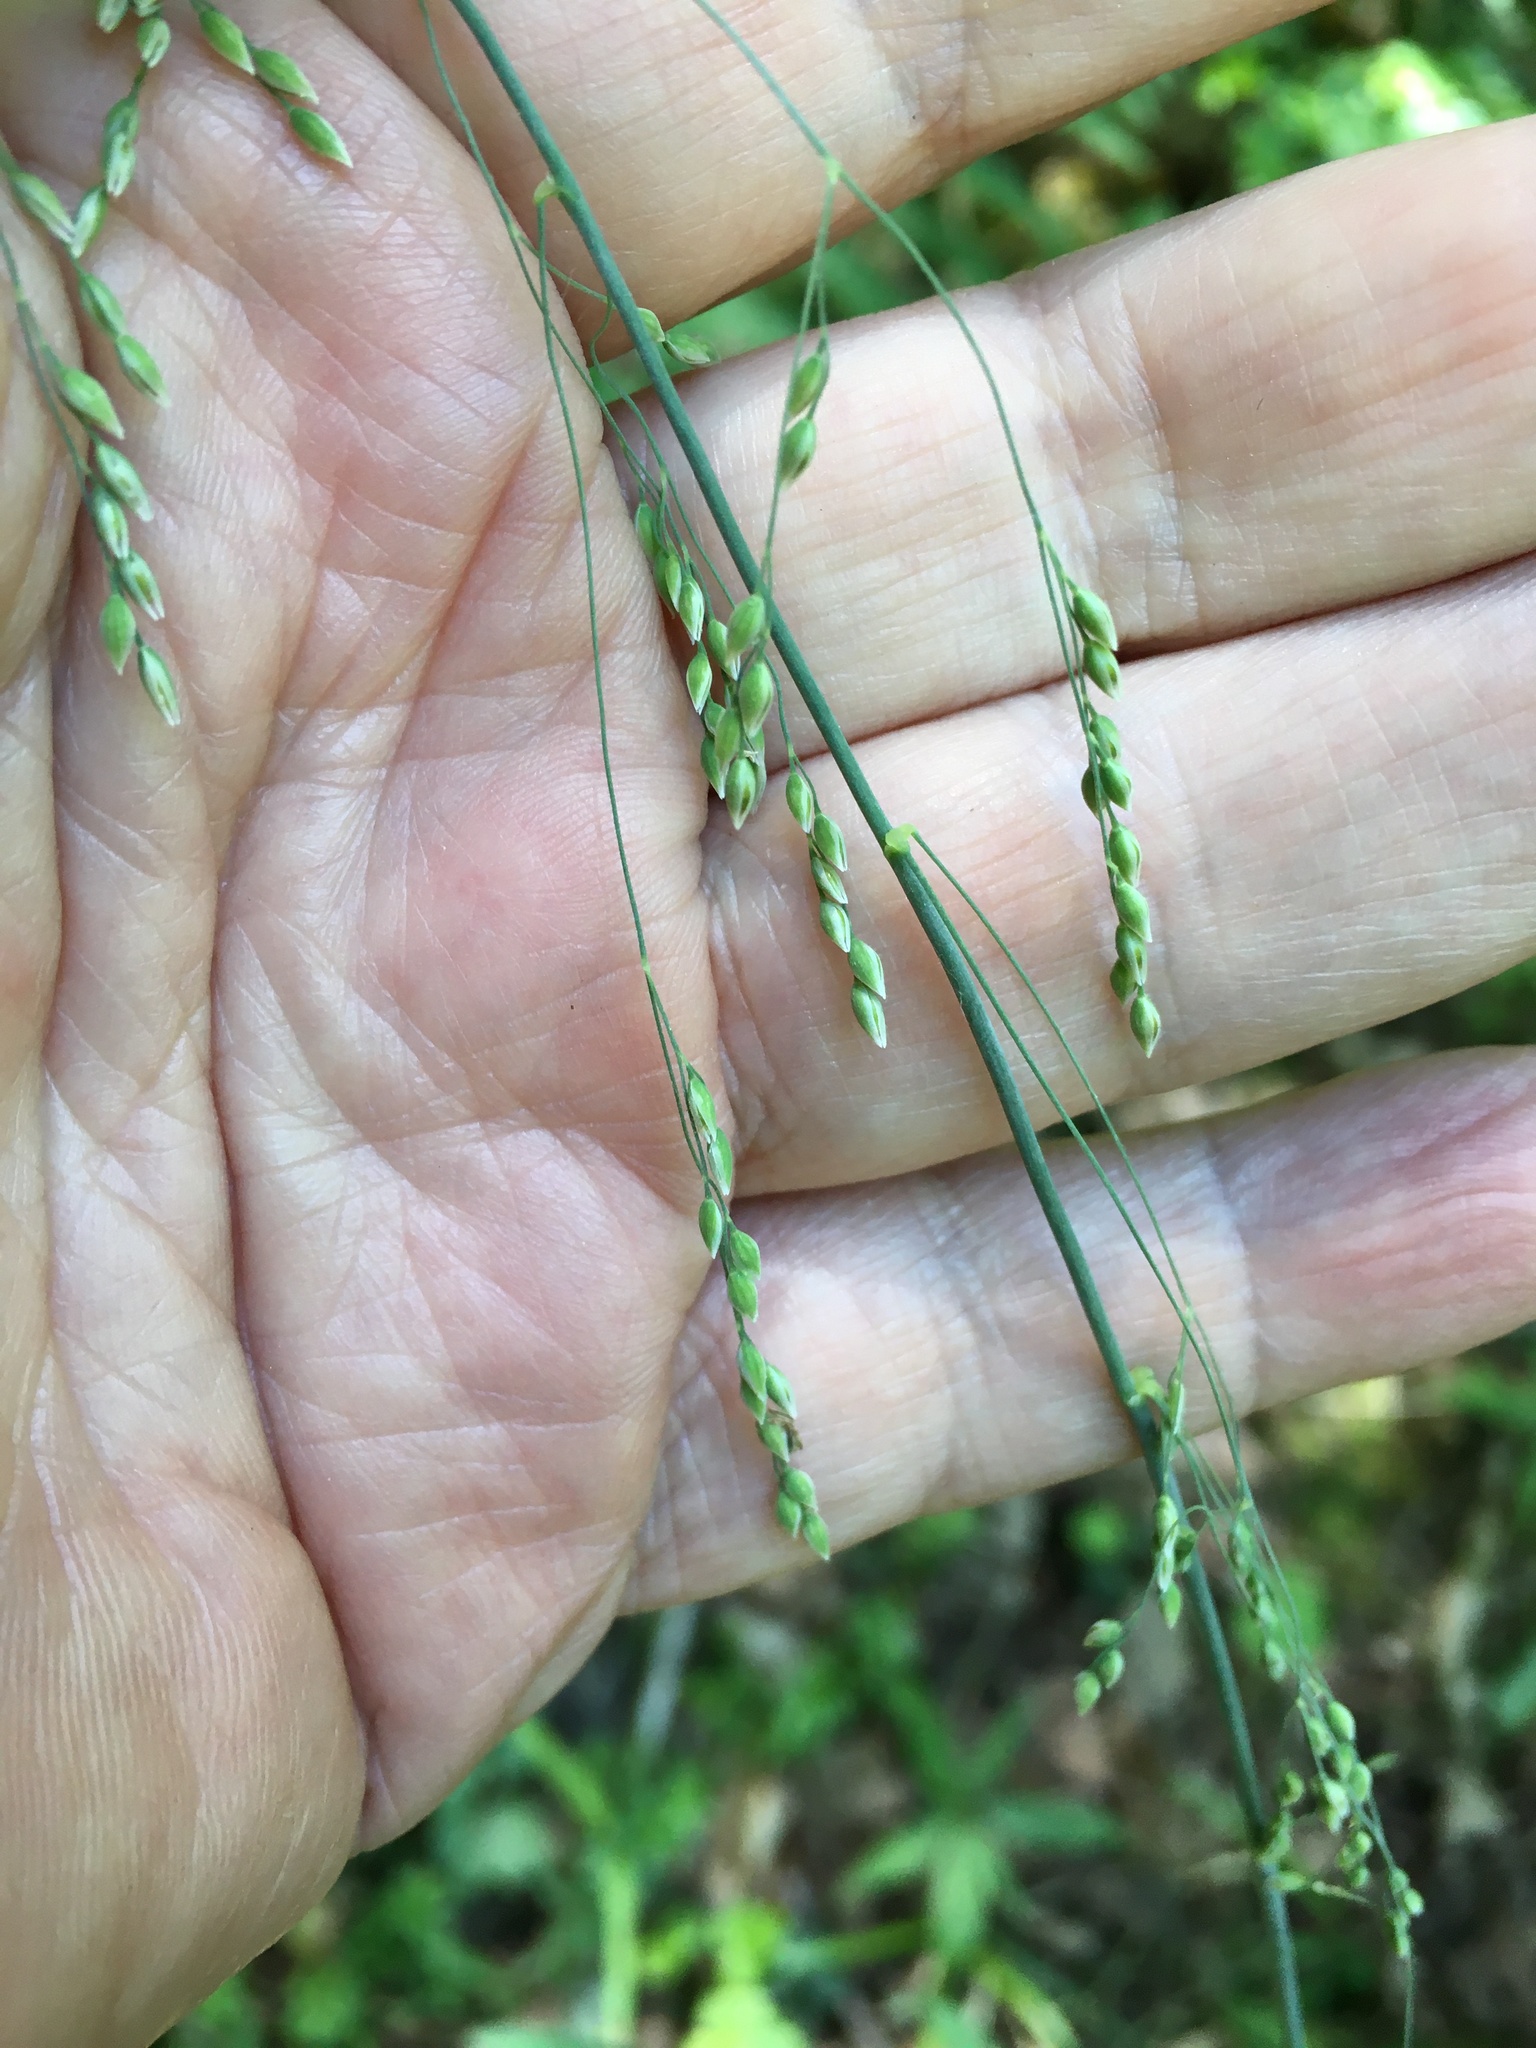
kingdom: Plantae
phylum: Tracheophyta
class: Liliopsida
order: Poales
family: Poaceae
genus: Milium
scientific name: Milium effusum
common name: Wood millet
